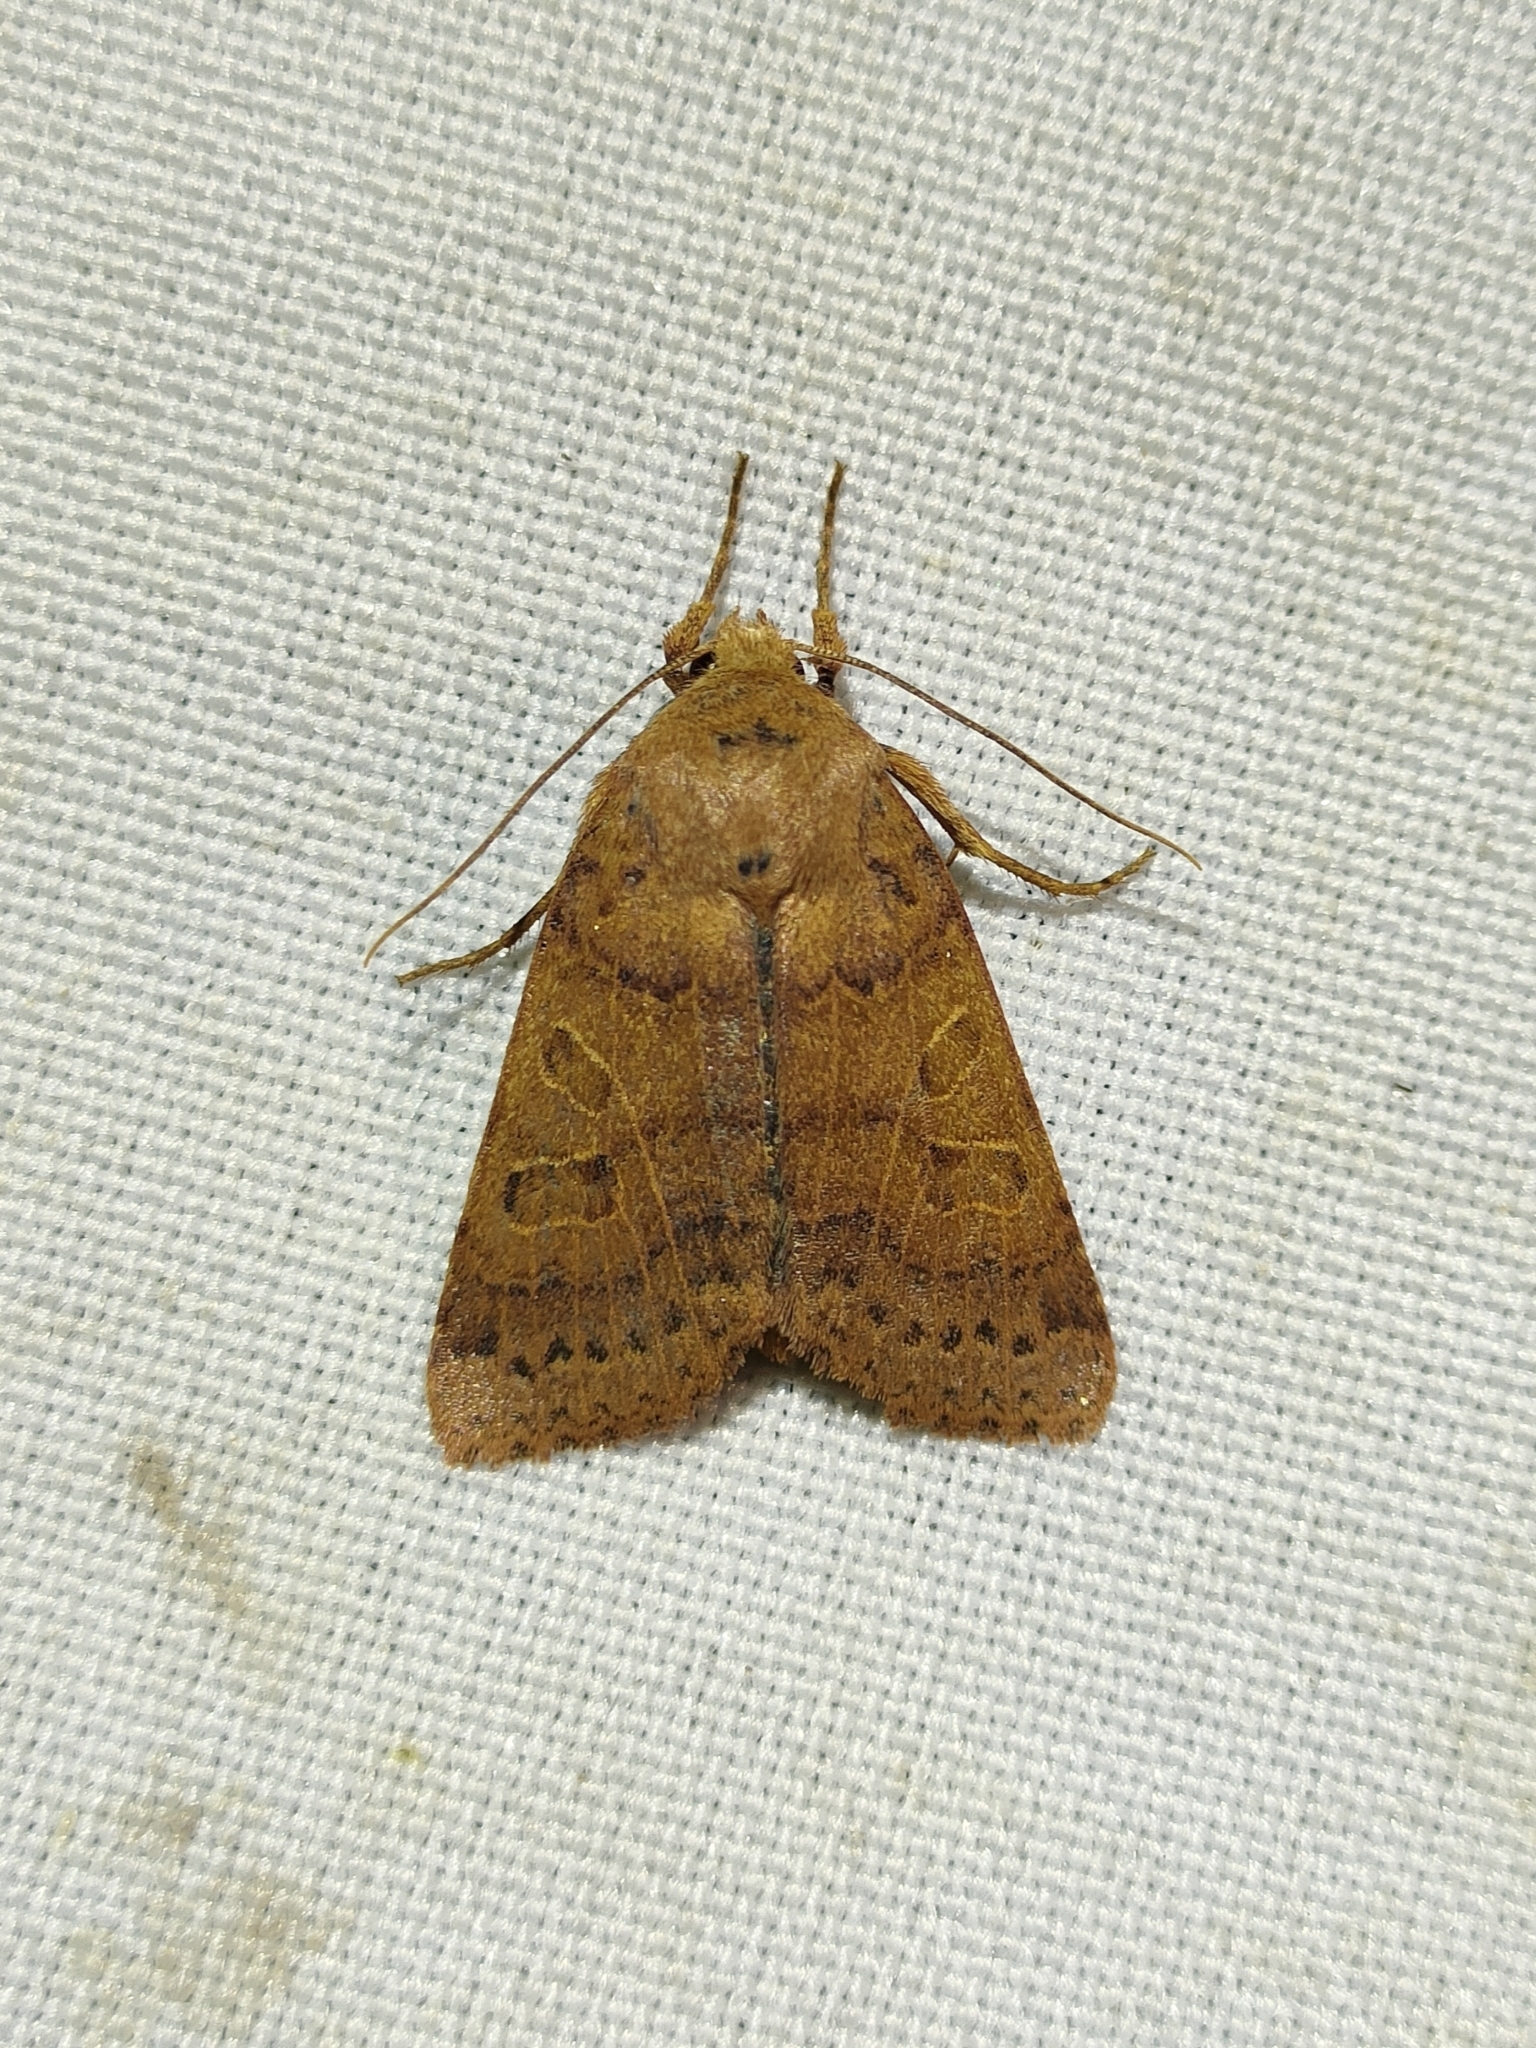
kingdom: Animalia
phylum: Arthropoda
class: Insecta
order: Lepidoptera
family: Noctuidae
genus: Agrochola
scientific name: Agrochola pistacinoides
